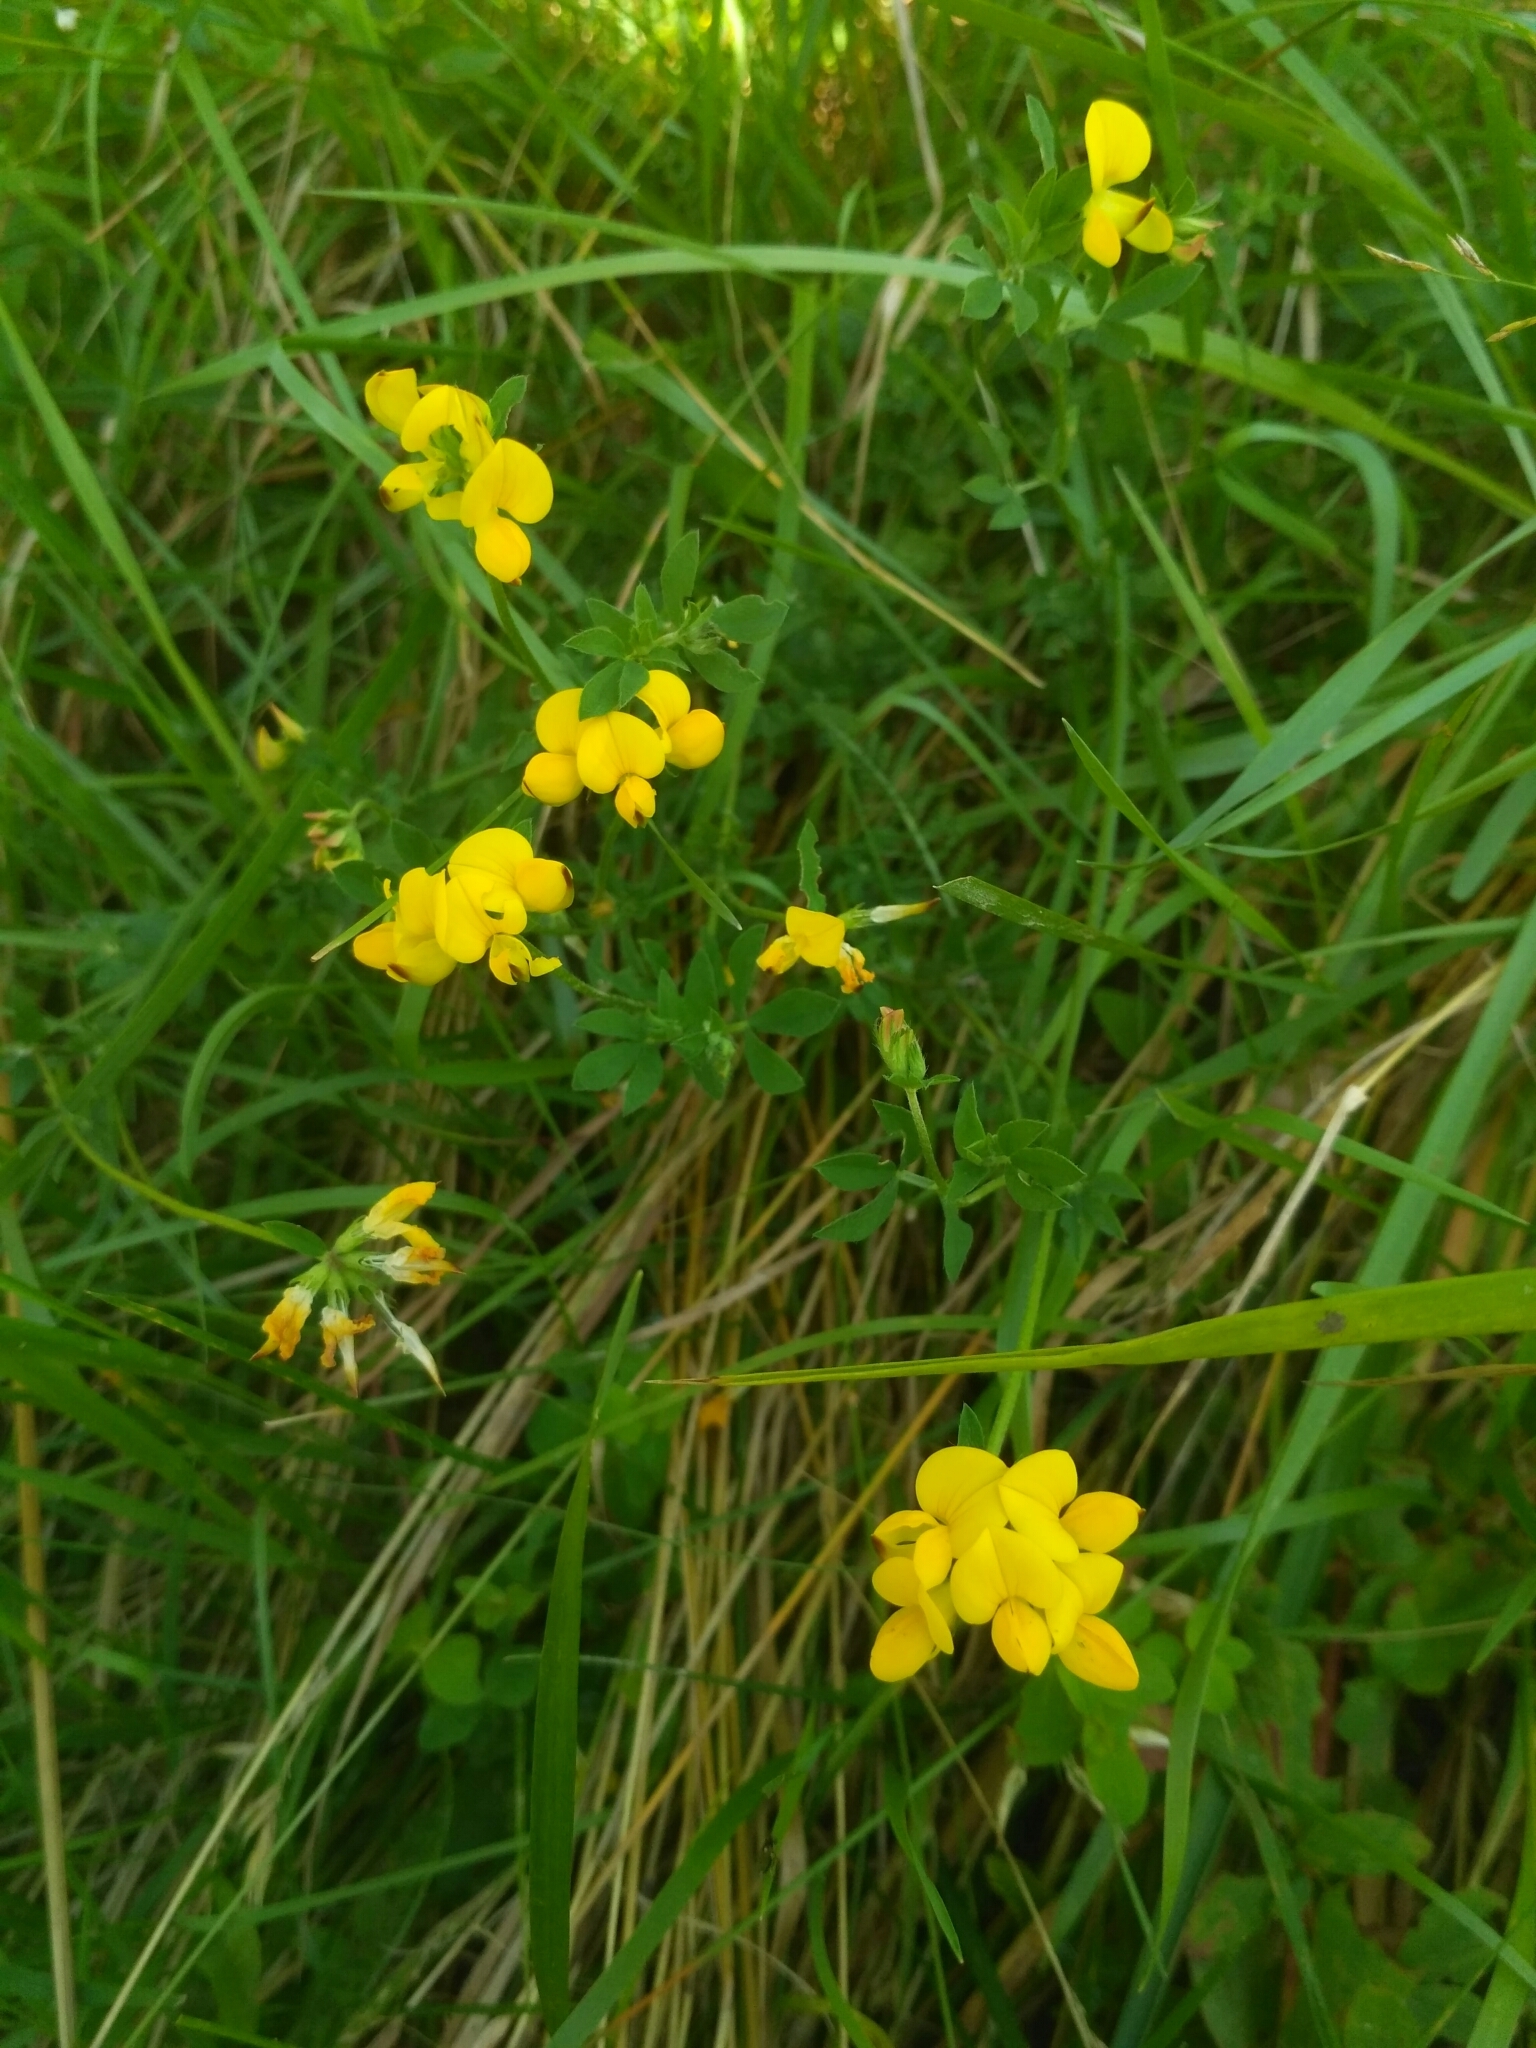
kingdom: Plantae
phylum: Tracheophyta
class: Magnoliopsida
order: Fabales
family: Fabaceae
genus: Lotus
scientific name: Lotus corniculatus
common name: Common bird's-foot-trefoil
